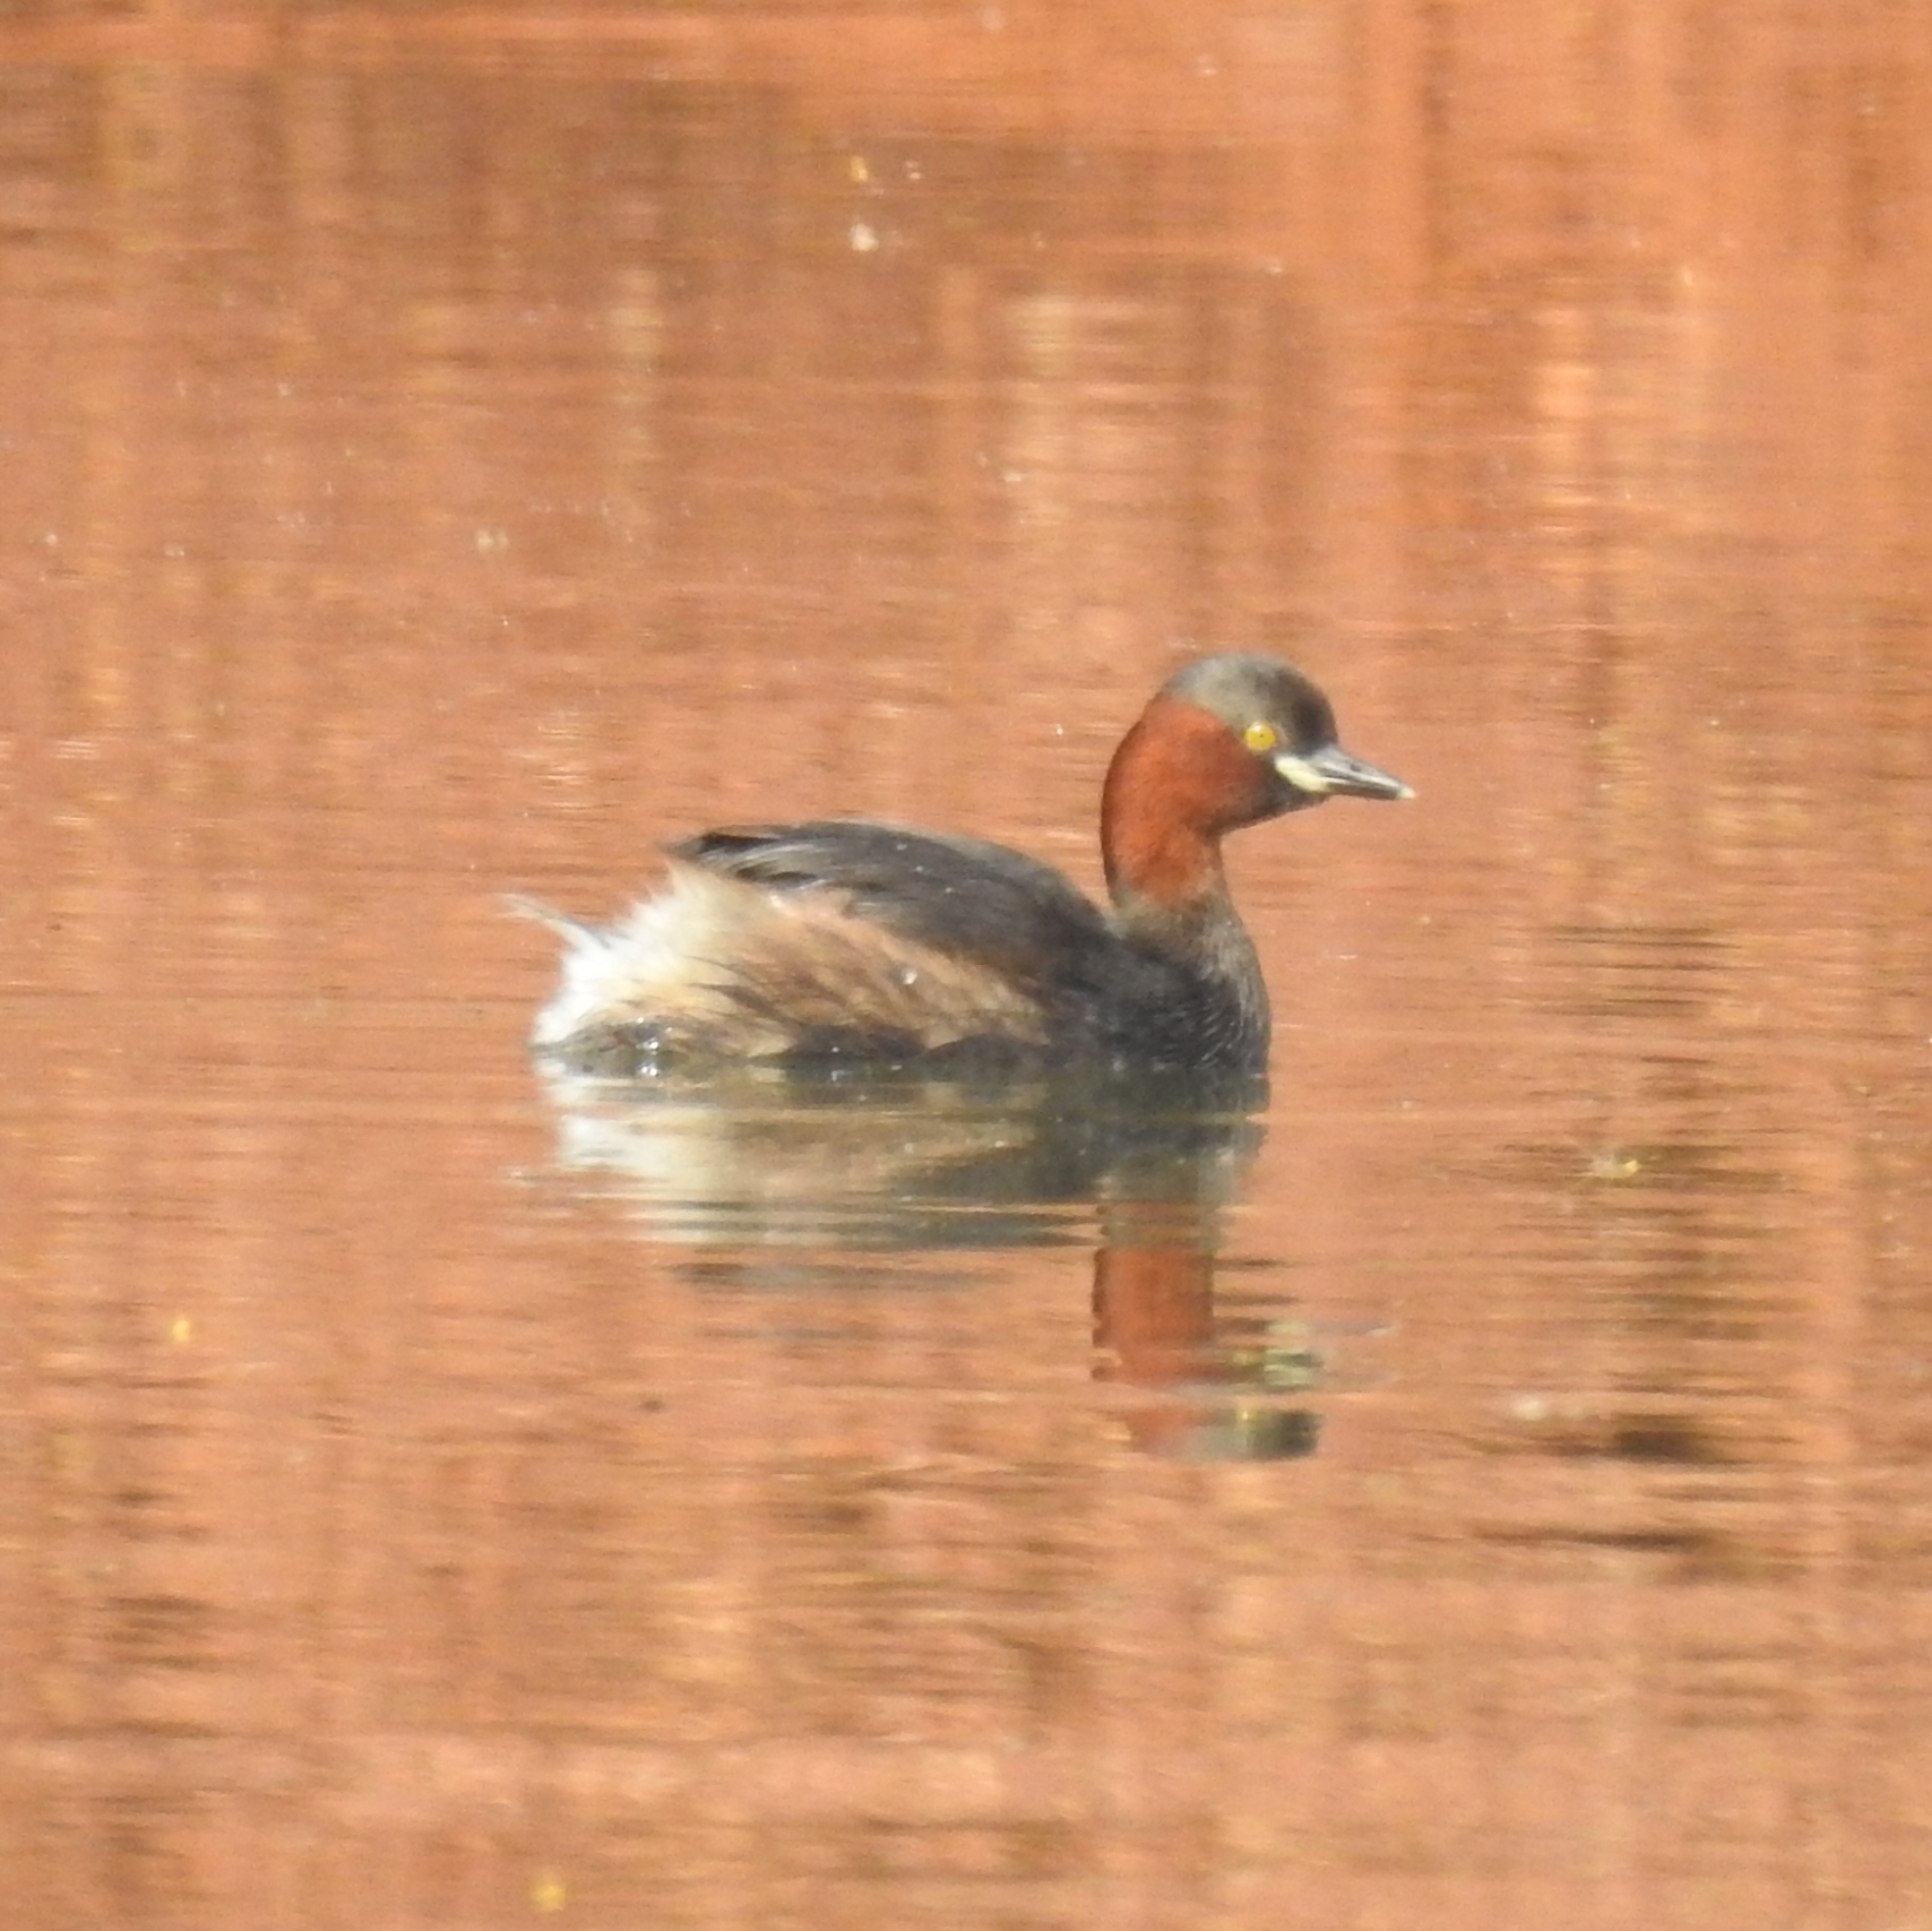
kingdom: Animalia
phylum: Chordata
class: Aves
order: Podicipediformes
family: Podicipedidae
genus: Tachybaptus
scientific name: Tachybaptus ruficollis
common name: Little grebe
